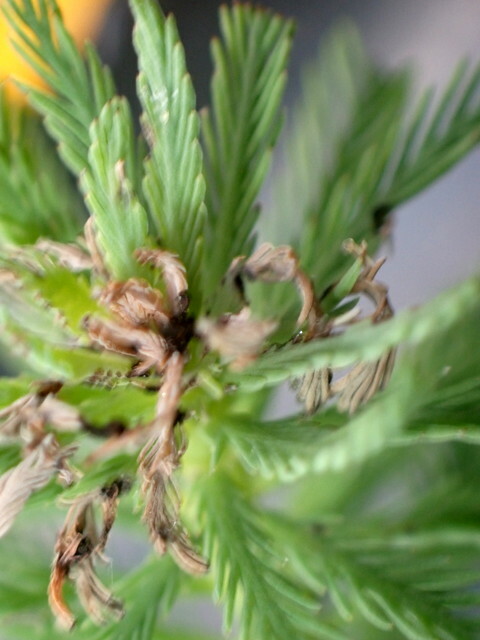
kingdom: Plantae
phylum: Tracheophyta
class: Magnoliopsida
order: Saxifragales
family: Haloragaceae
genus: Myriophyllum
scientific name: Myriophyllum aquaticum
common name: Parrot's feather
